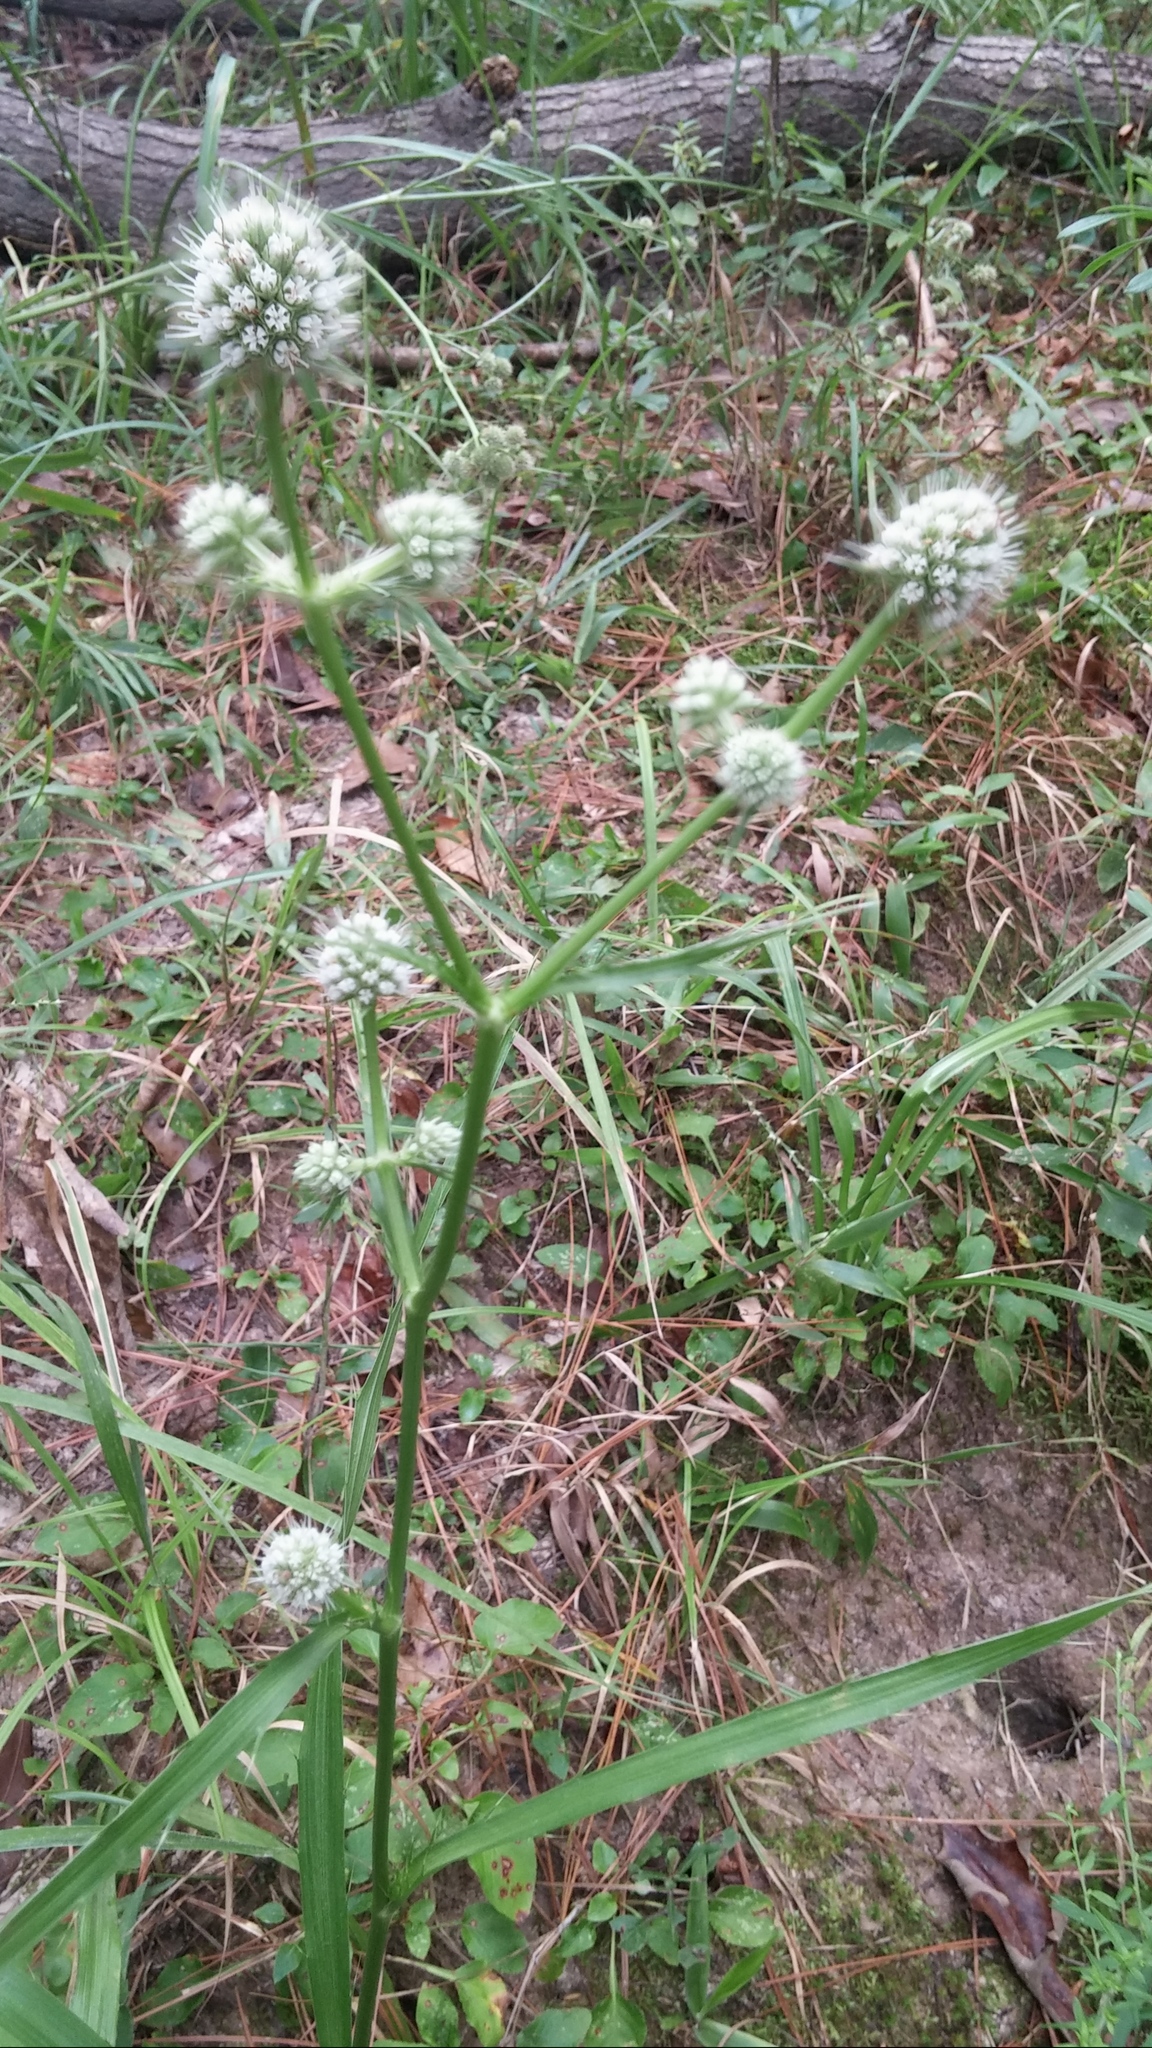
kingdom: Plantae
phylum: Tracheophyta
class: Magnoliopsida
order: Apiales
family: Apiaceae
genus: Eryngium
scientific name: Eryngium yuccifolium
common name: Button eryngo
